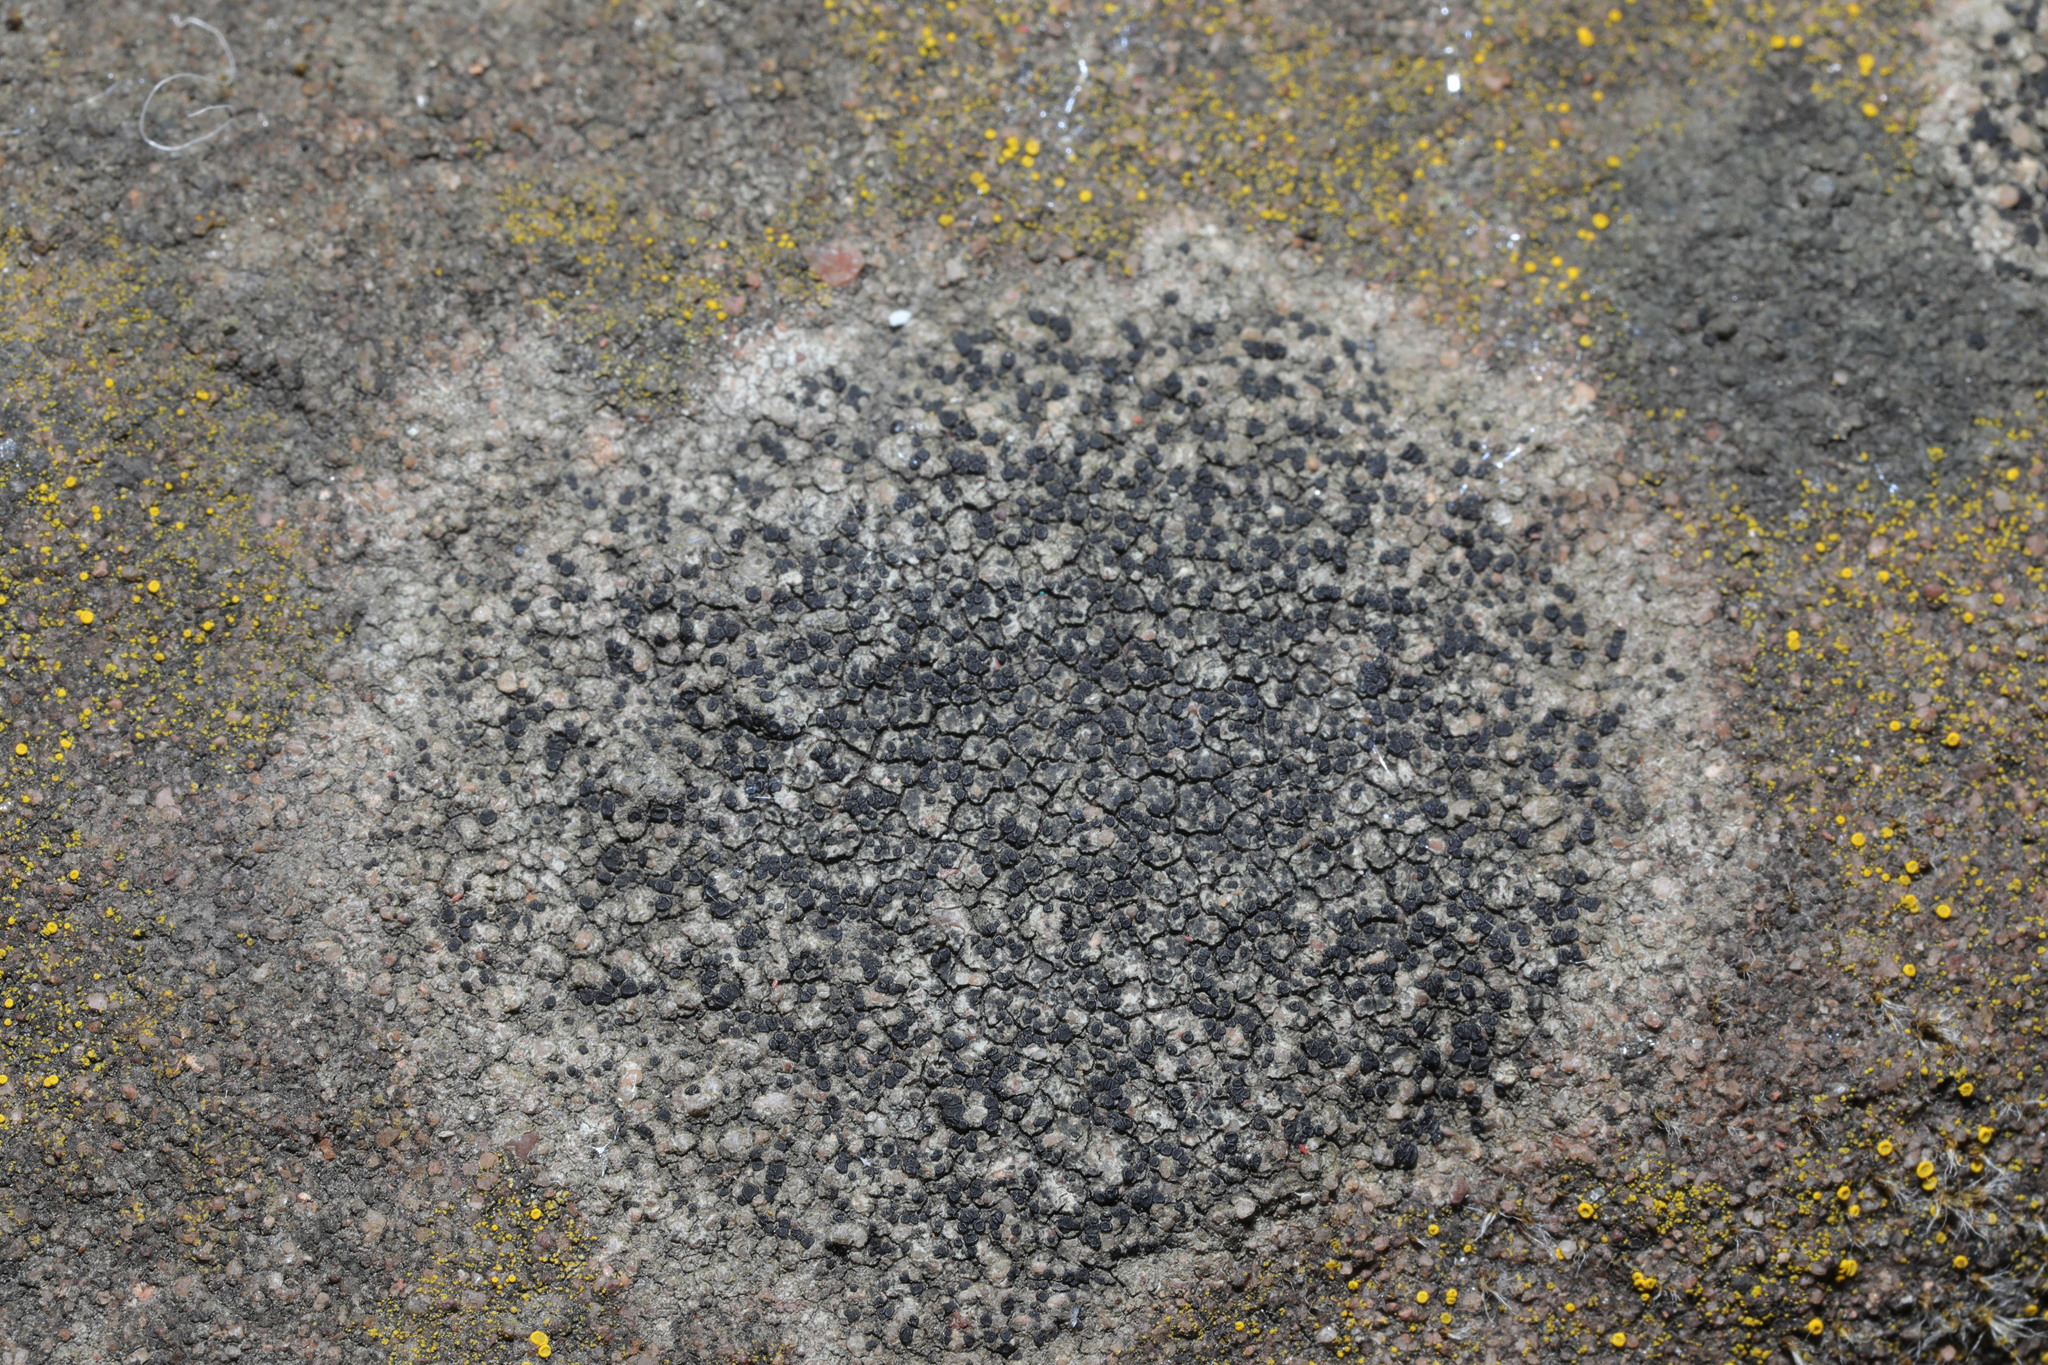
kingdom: Fungi
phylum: Ascomycota
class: Lecanoromycetes
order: Lecanorales
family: Lecanoraceae
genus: Lecidella
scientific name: Lecidella stigmatea
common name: Limestone disc lichen
